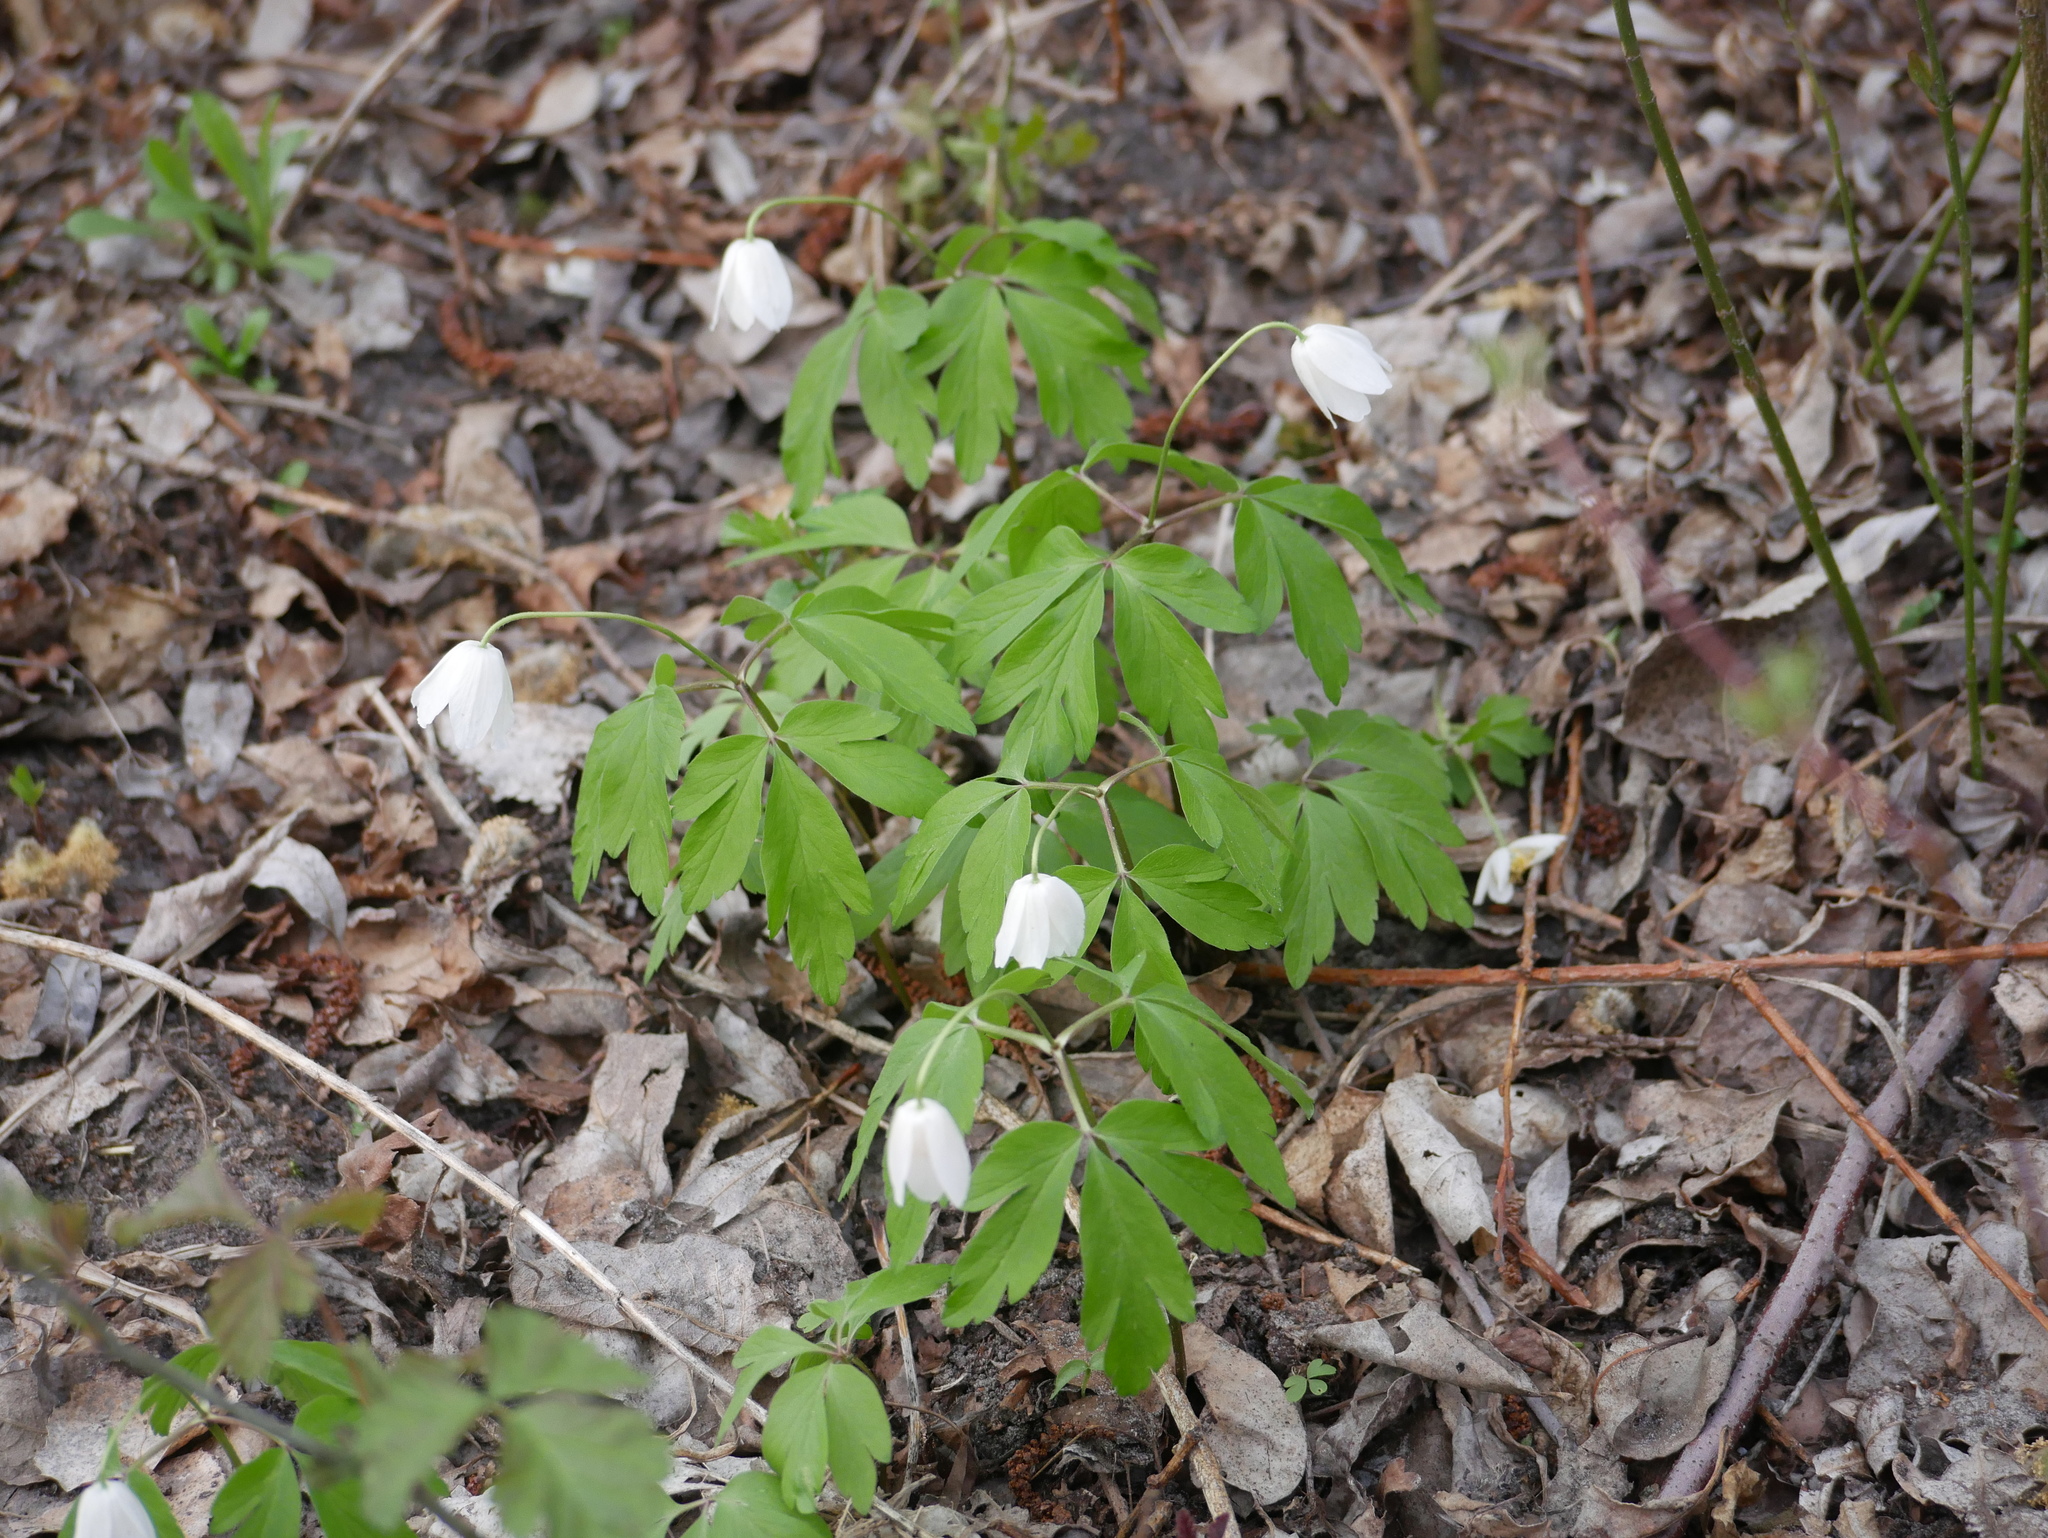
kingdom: Plantae
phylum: Tracheophyta
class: Magnoliopsida
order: Ranunculales
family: Ranunculaceae
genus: Anemone
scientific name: Anemone nemorosa
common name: Wood anemone
